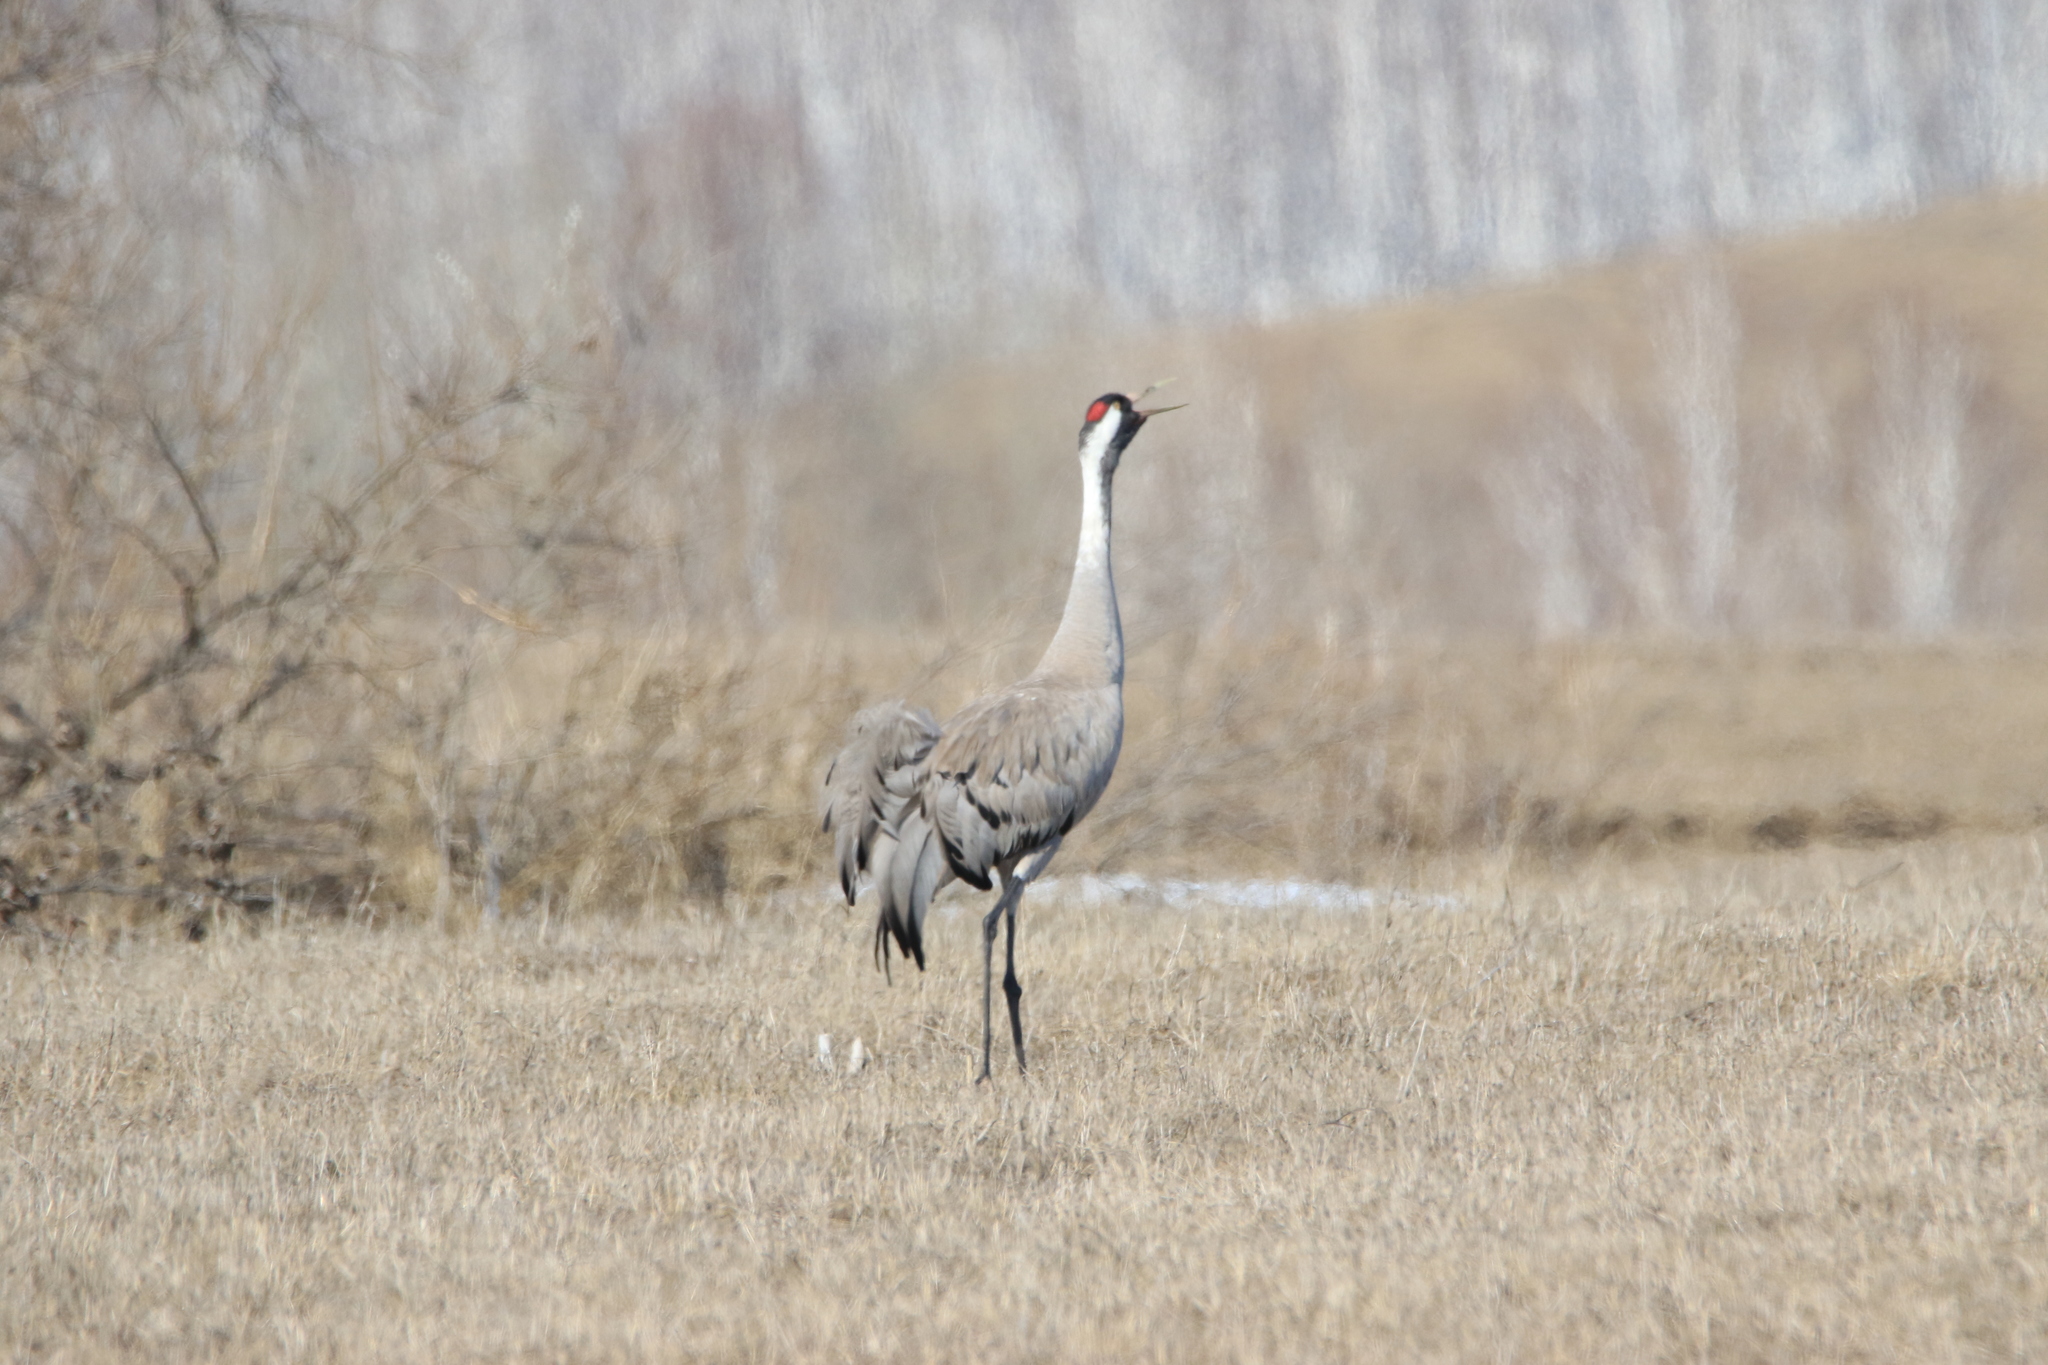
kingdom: Animalia
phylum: Chordata
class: Aves
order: Gruiformes
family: Gruidae
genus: Grus
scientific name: Grus grus
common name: Common crane
